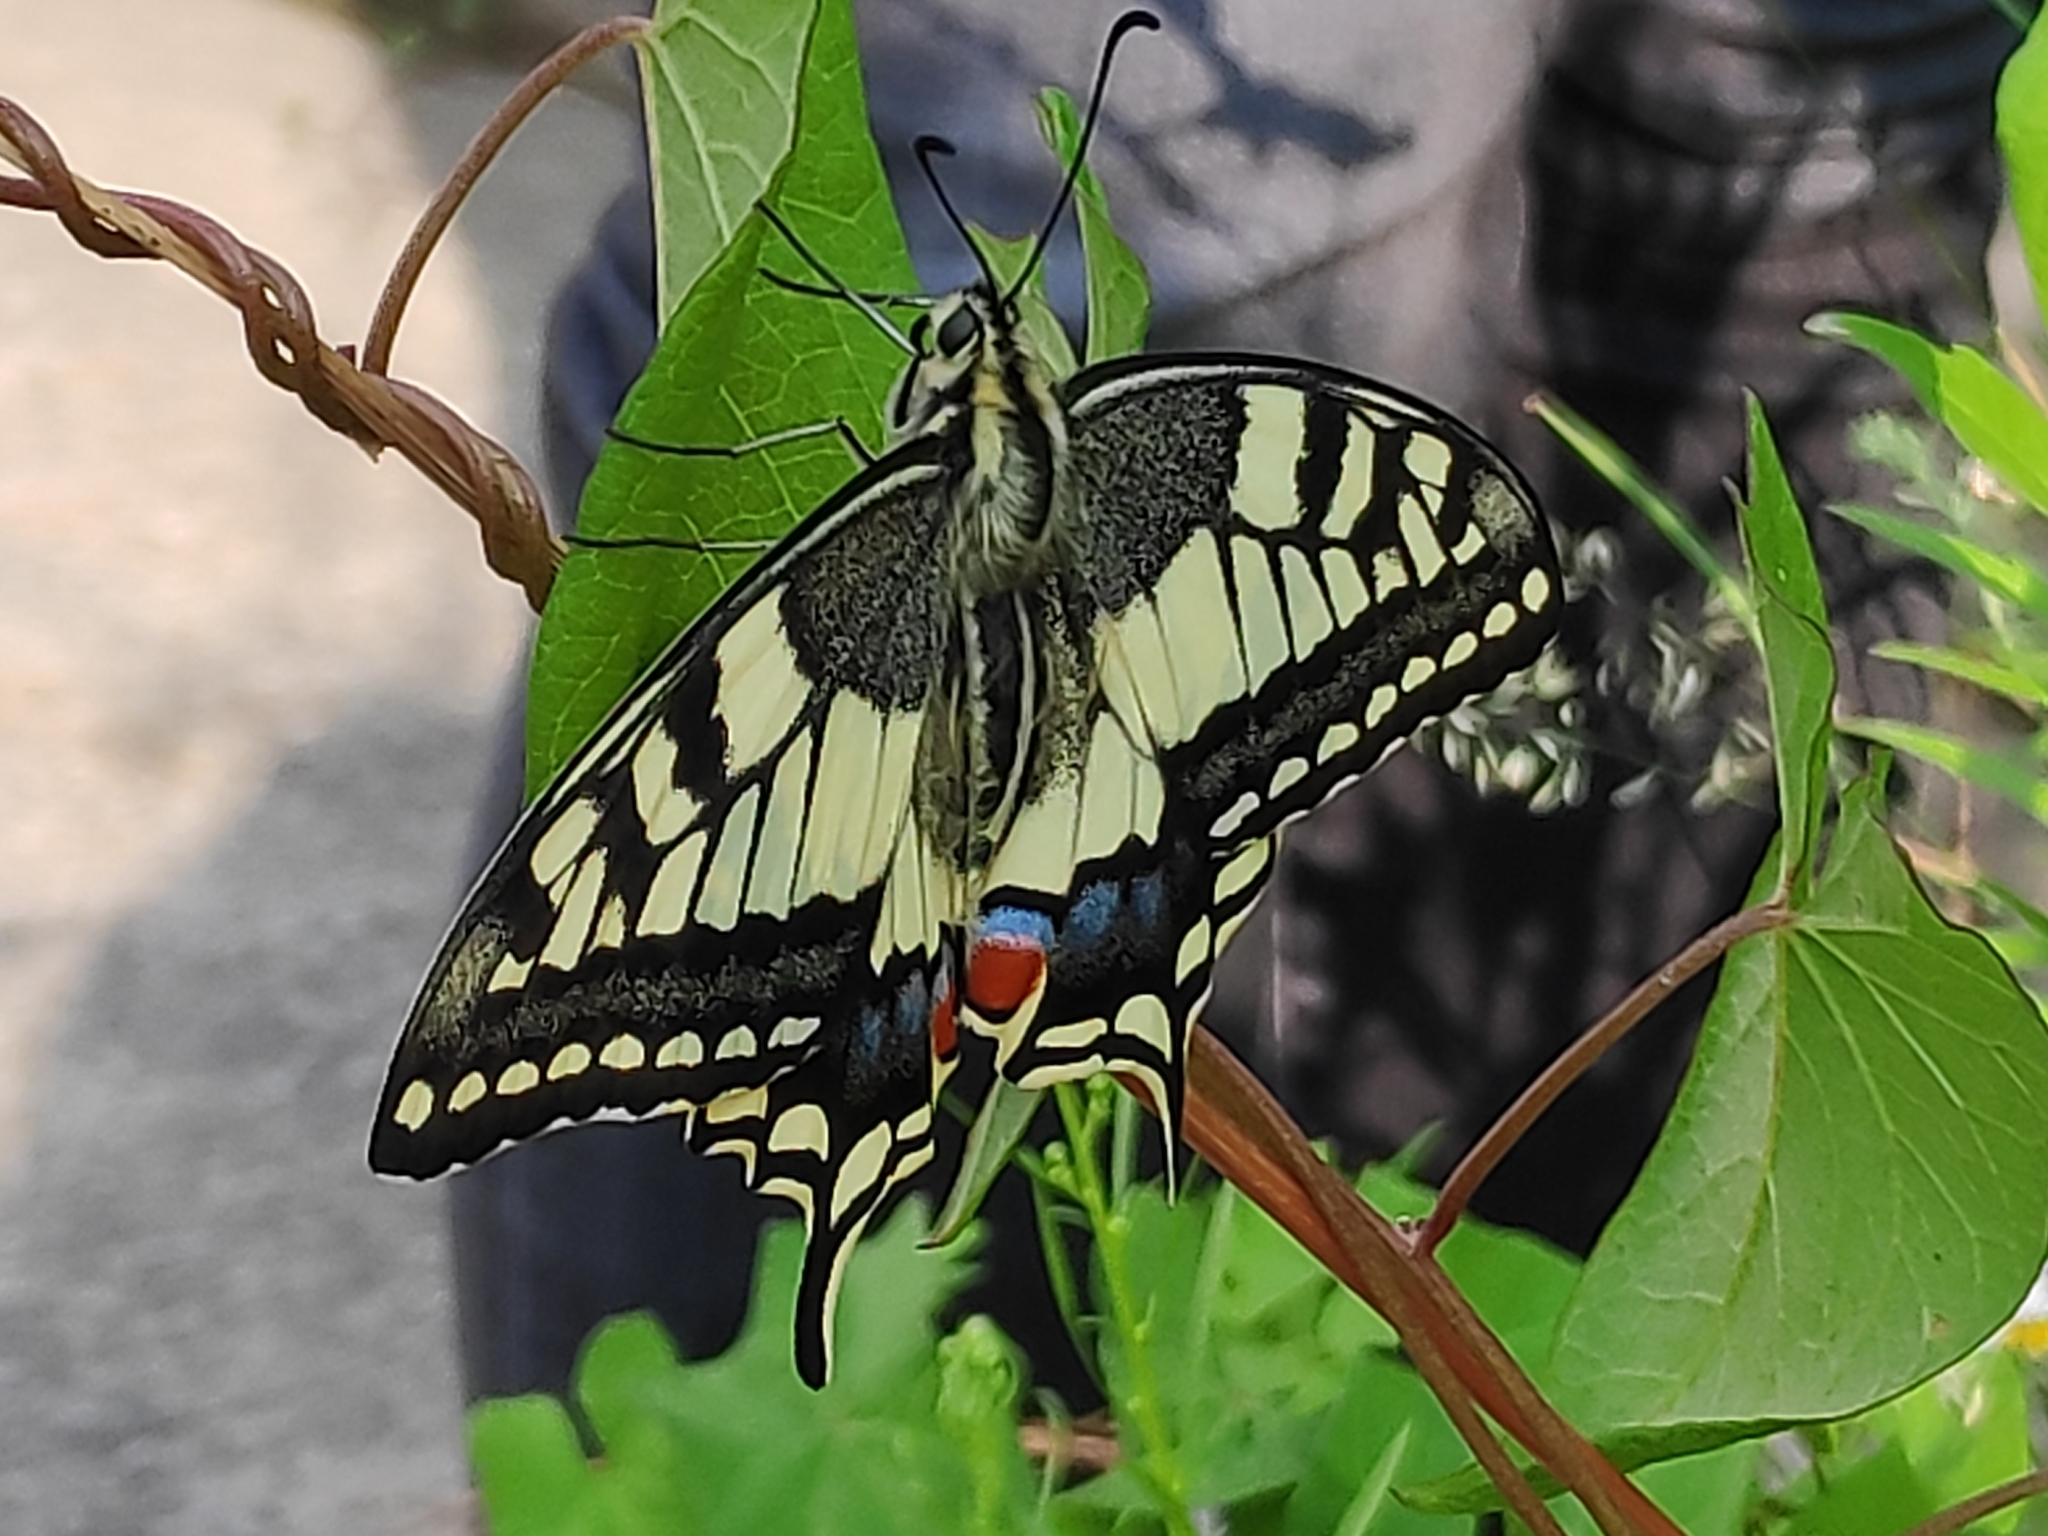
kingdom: Animalia
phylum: Arthropoda
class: Insecta
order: Lepidoptera
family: Papilionidae
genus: Papilio
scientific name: Papilio machaon
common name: Swallowtail
